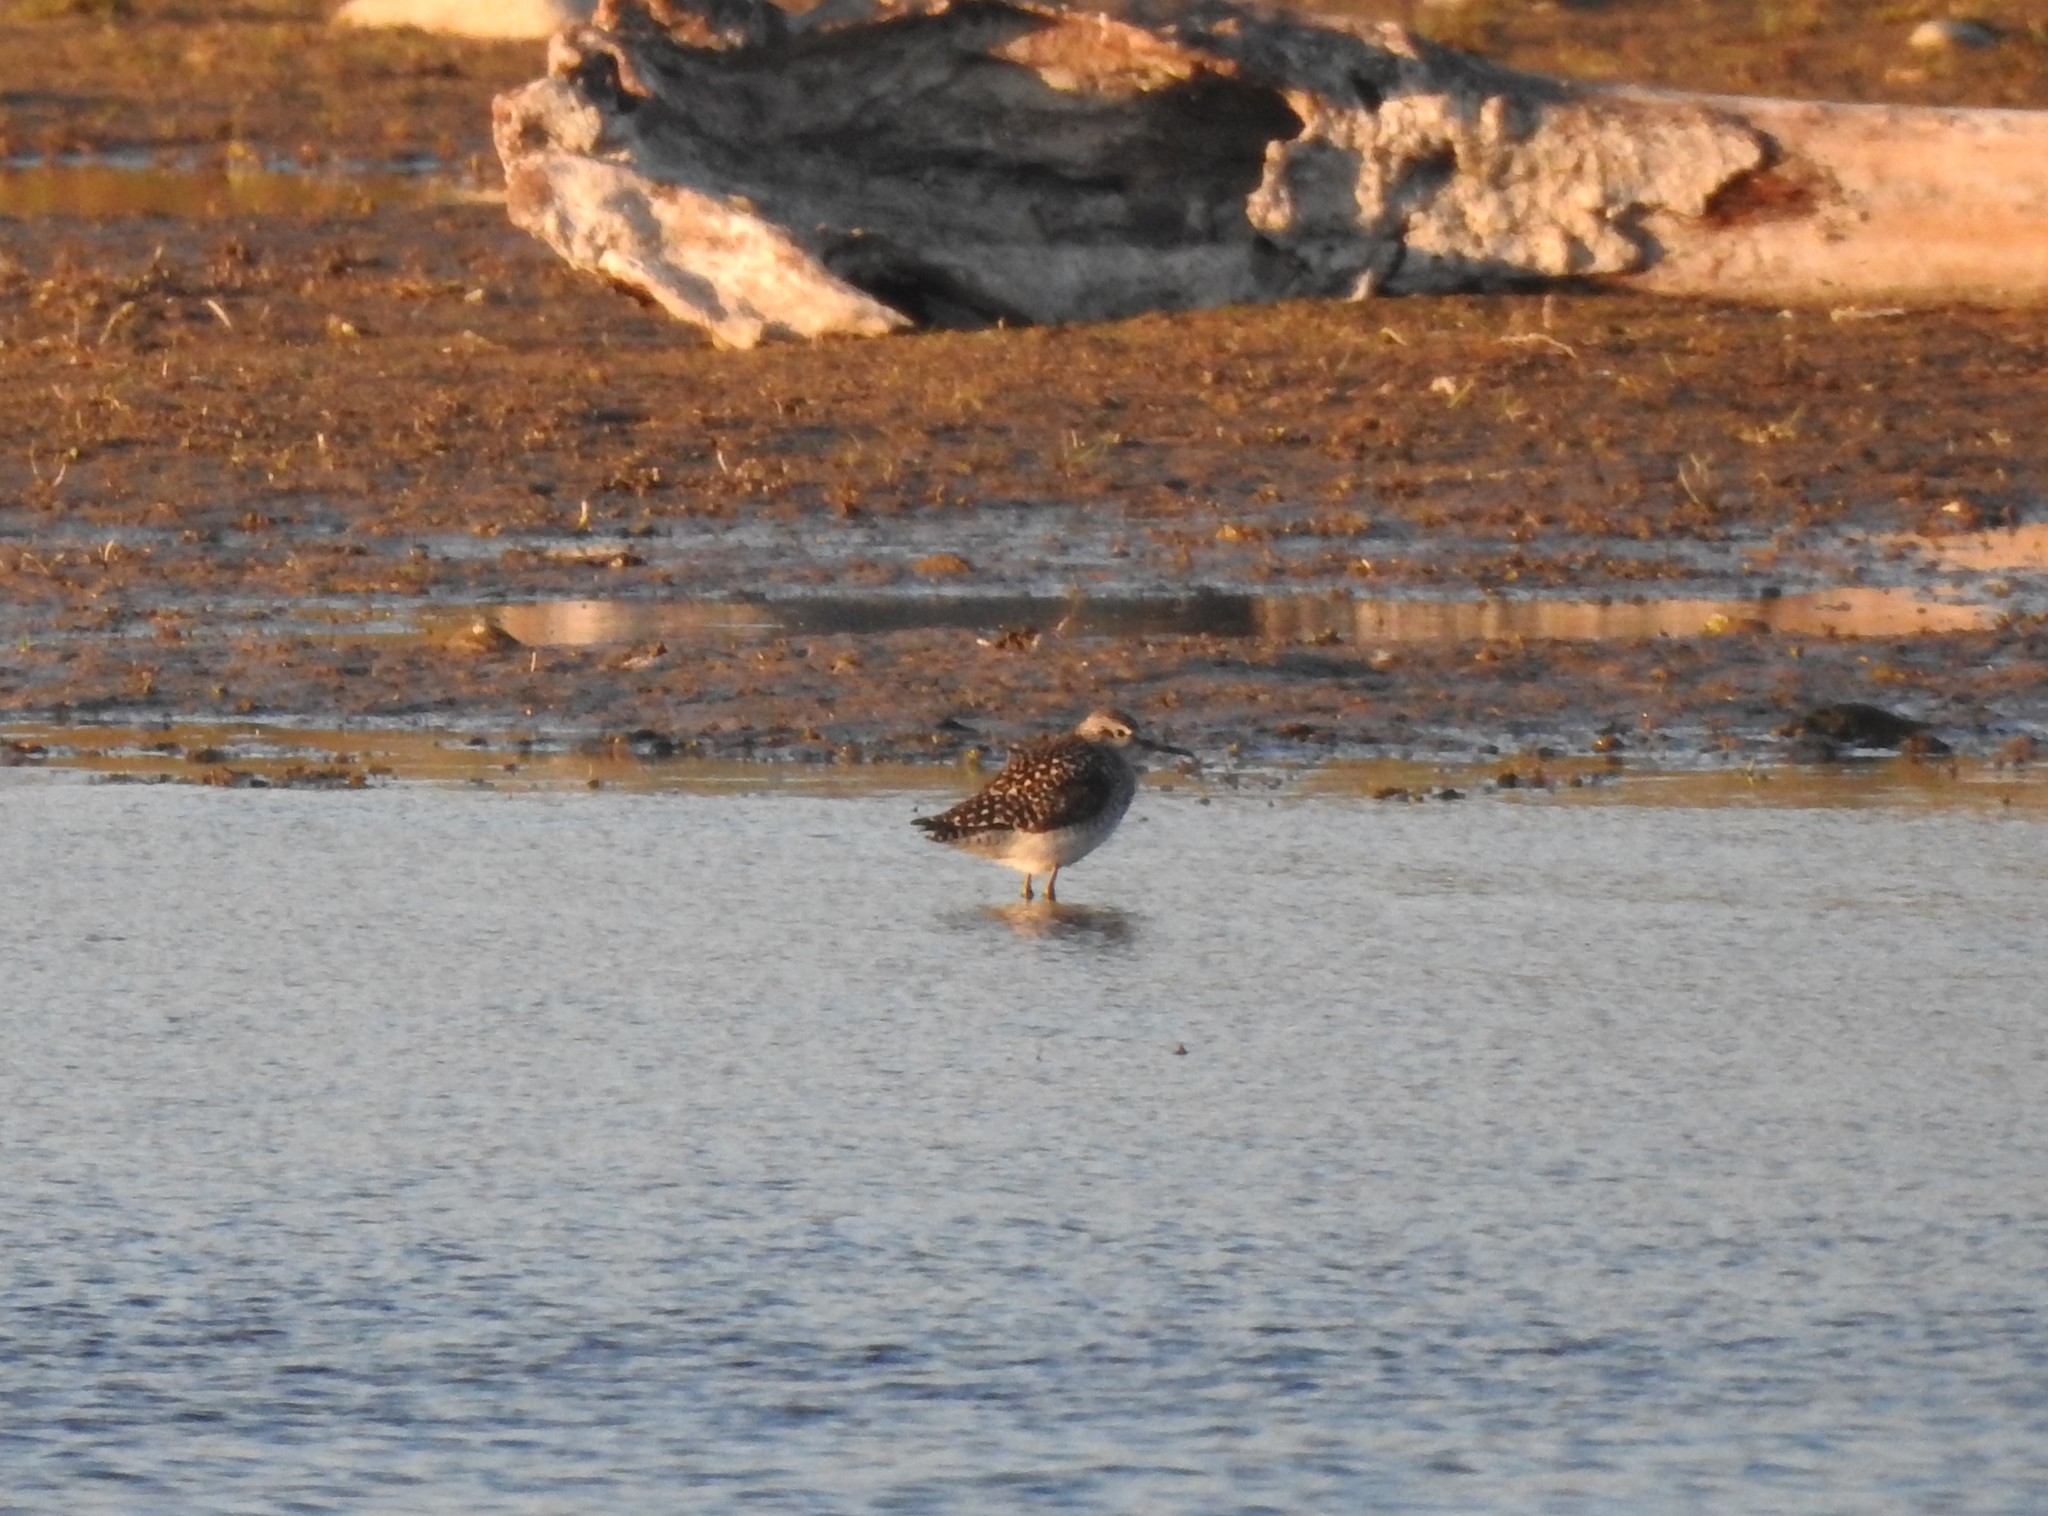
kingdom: Animalia
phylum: Chordata
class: Aves
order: Charadriiformes
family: Scolopacidae
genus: Tringa
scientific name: Tringa glareola
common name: Wood sandpiper
